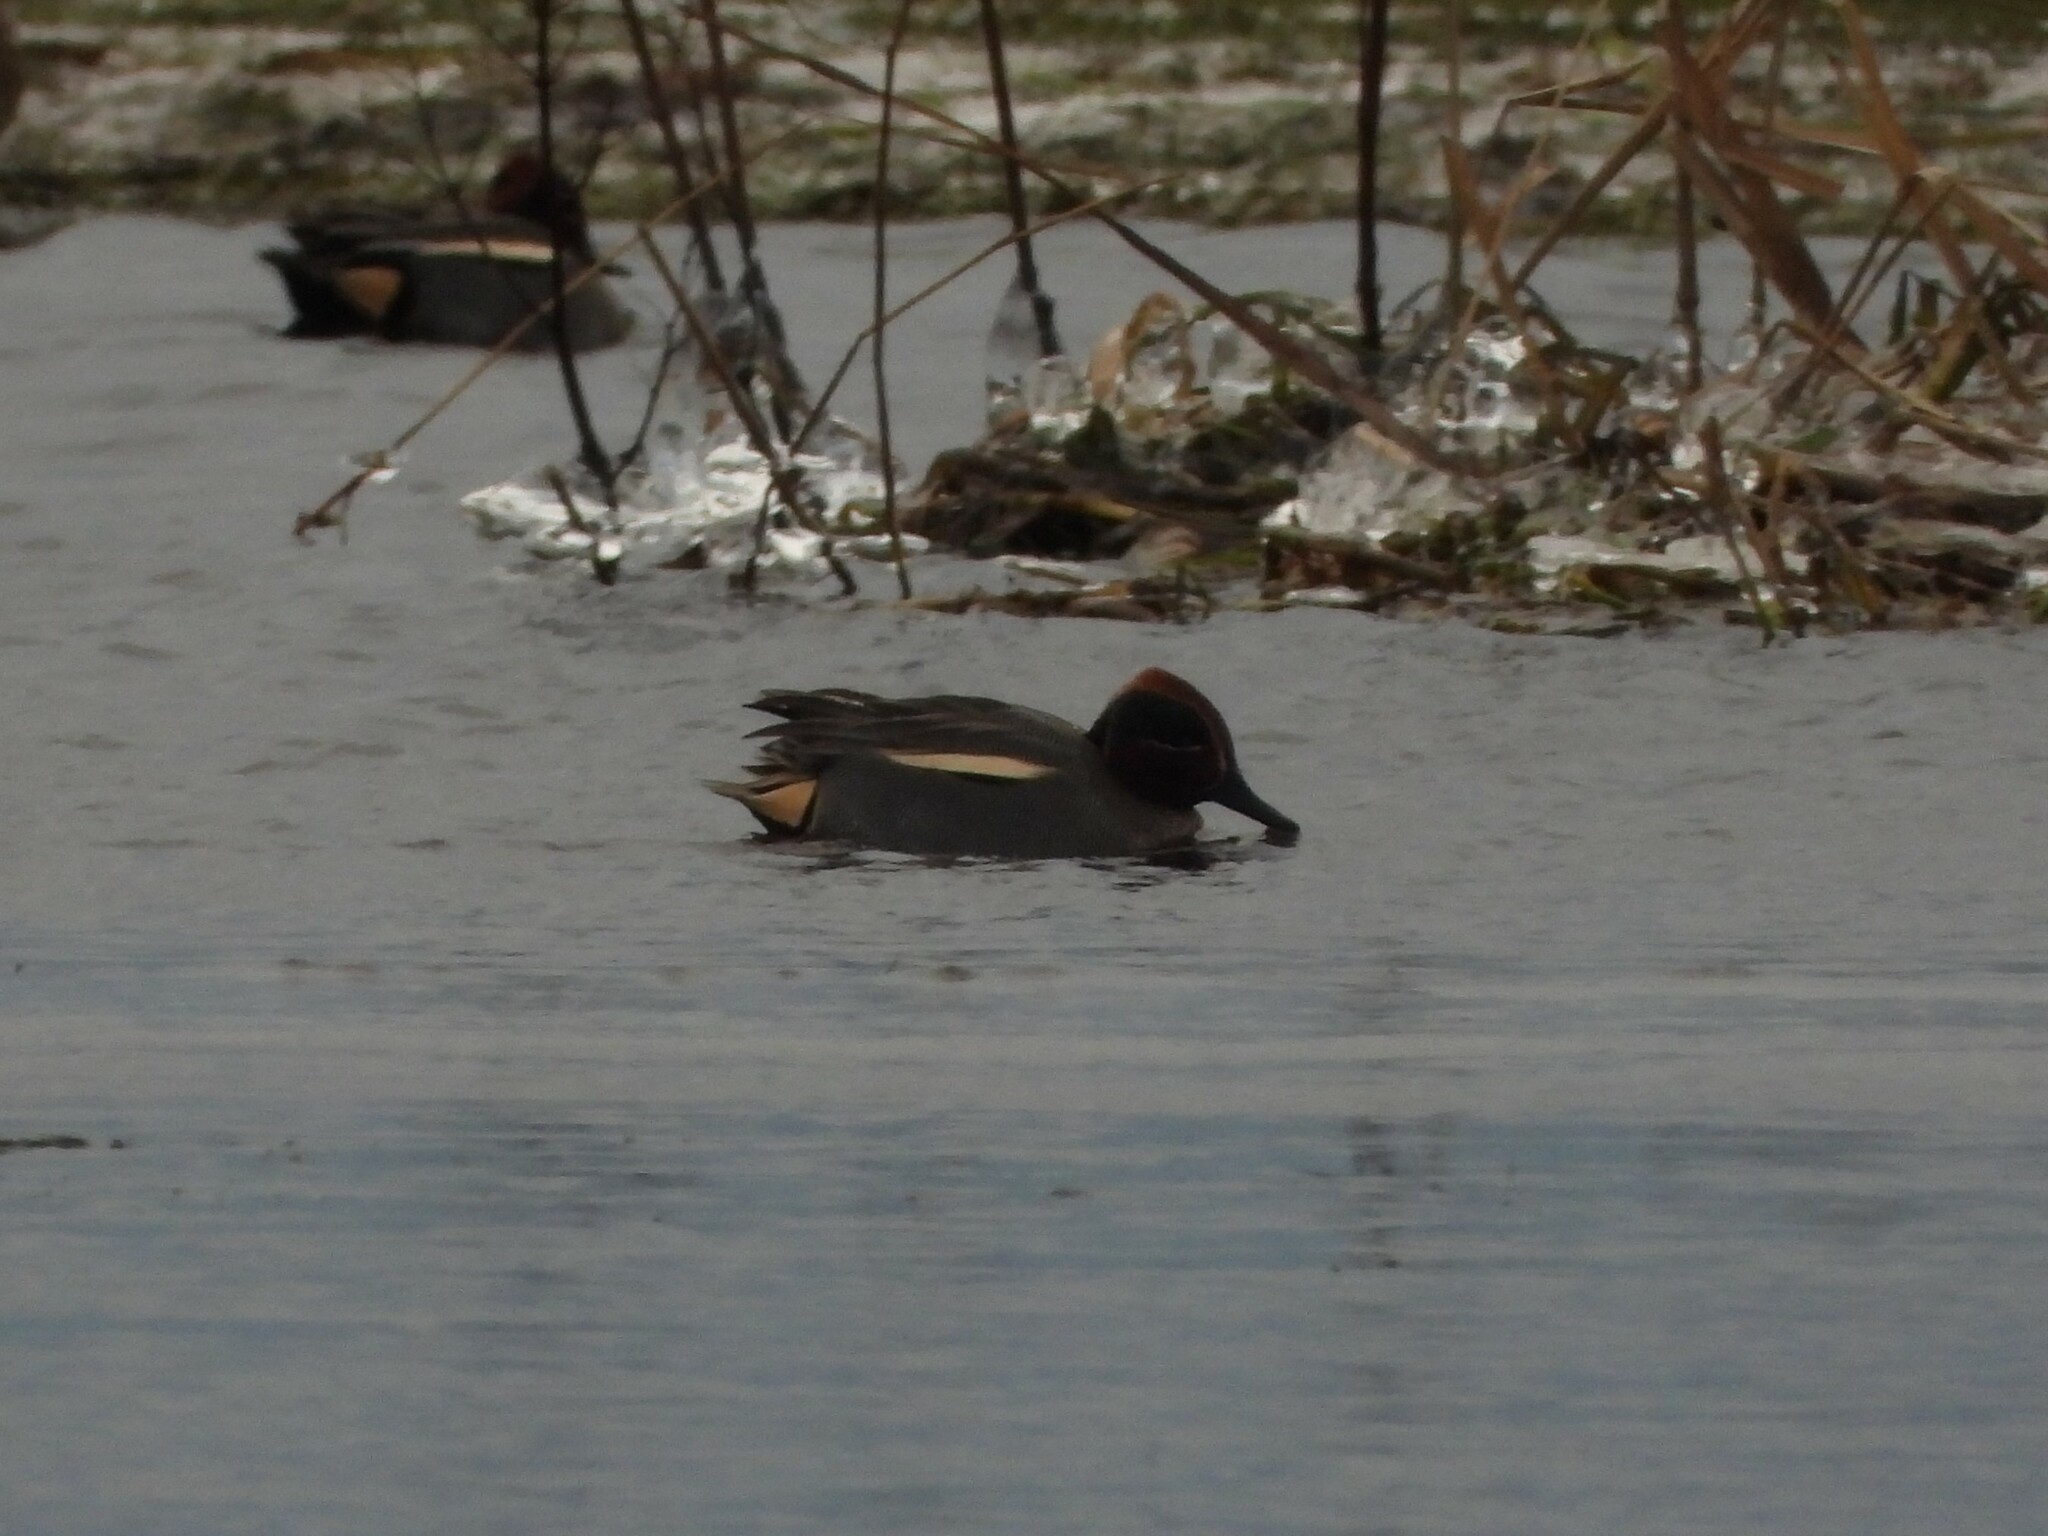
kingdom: Animalia
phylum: Chordata
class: Aves
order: Anseriformes
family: Anatidae
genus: Anas
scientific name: Anas crecca
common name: Eurasian teal
